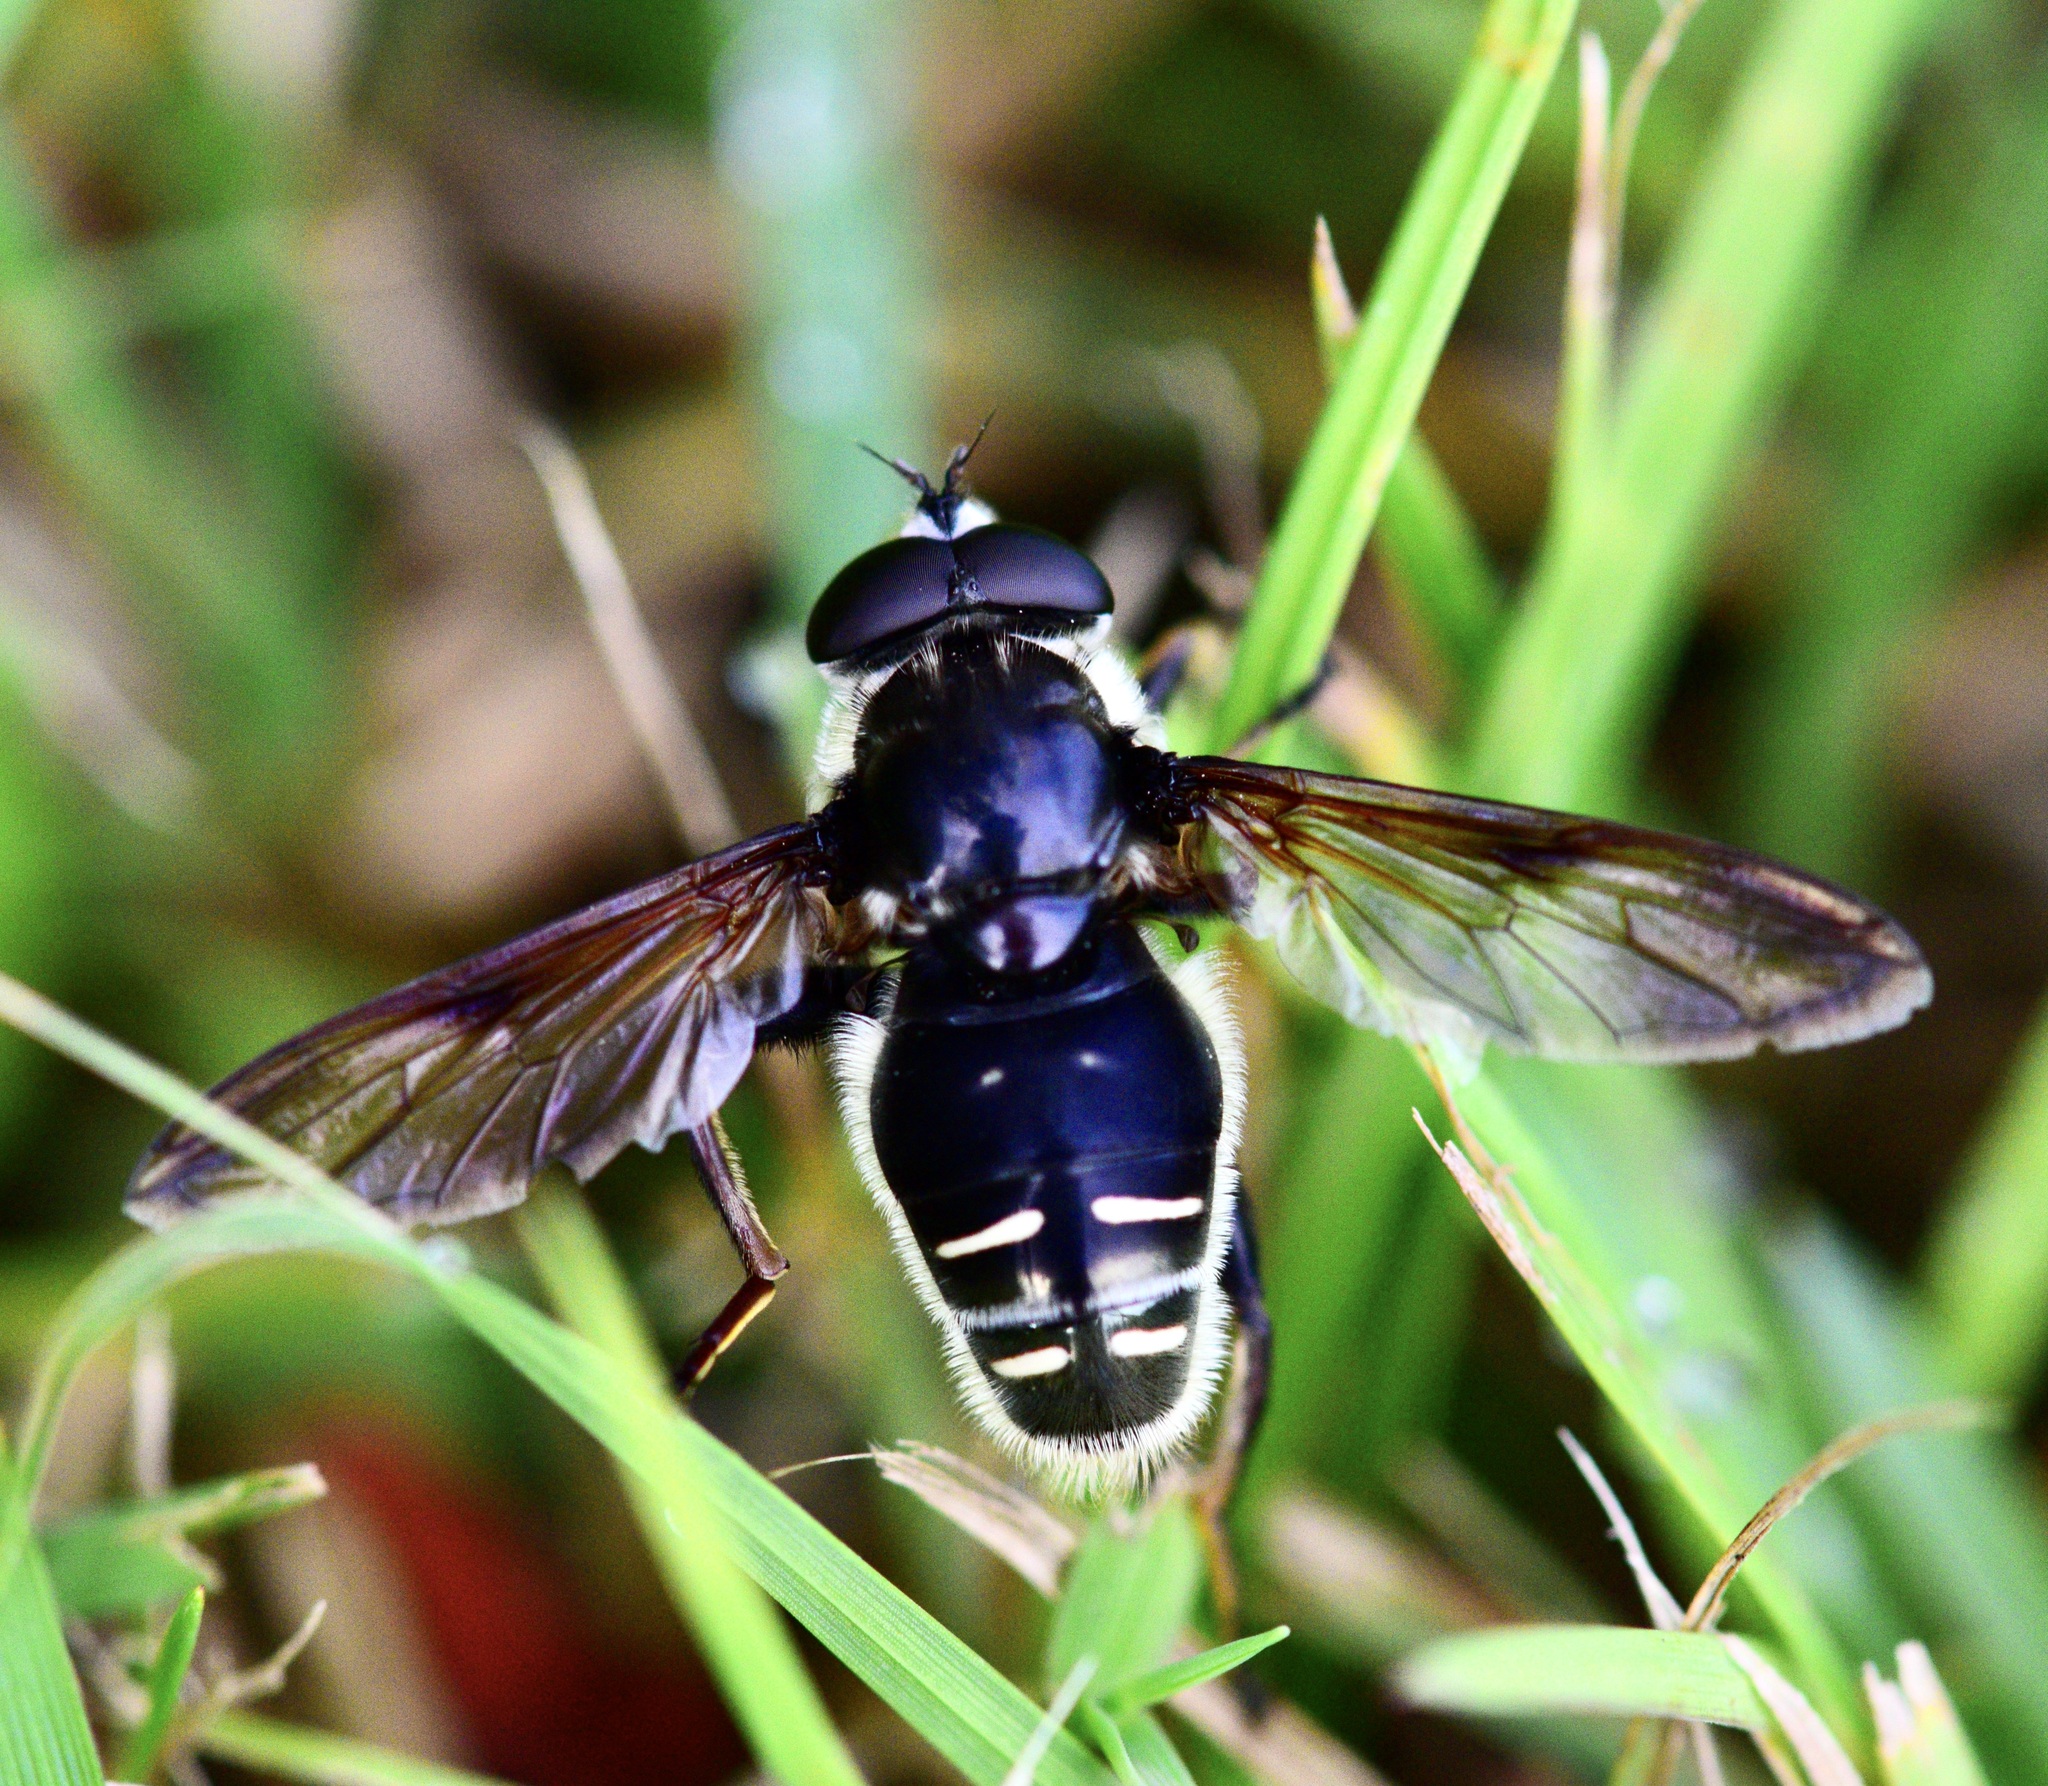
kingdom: Animalia
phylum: Arthropoda
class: Insecta
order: Diptera
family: Syrphidae
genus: Sericomyia
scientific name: Sericomyia militaris
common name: Narrow-banded pond fly
